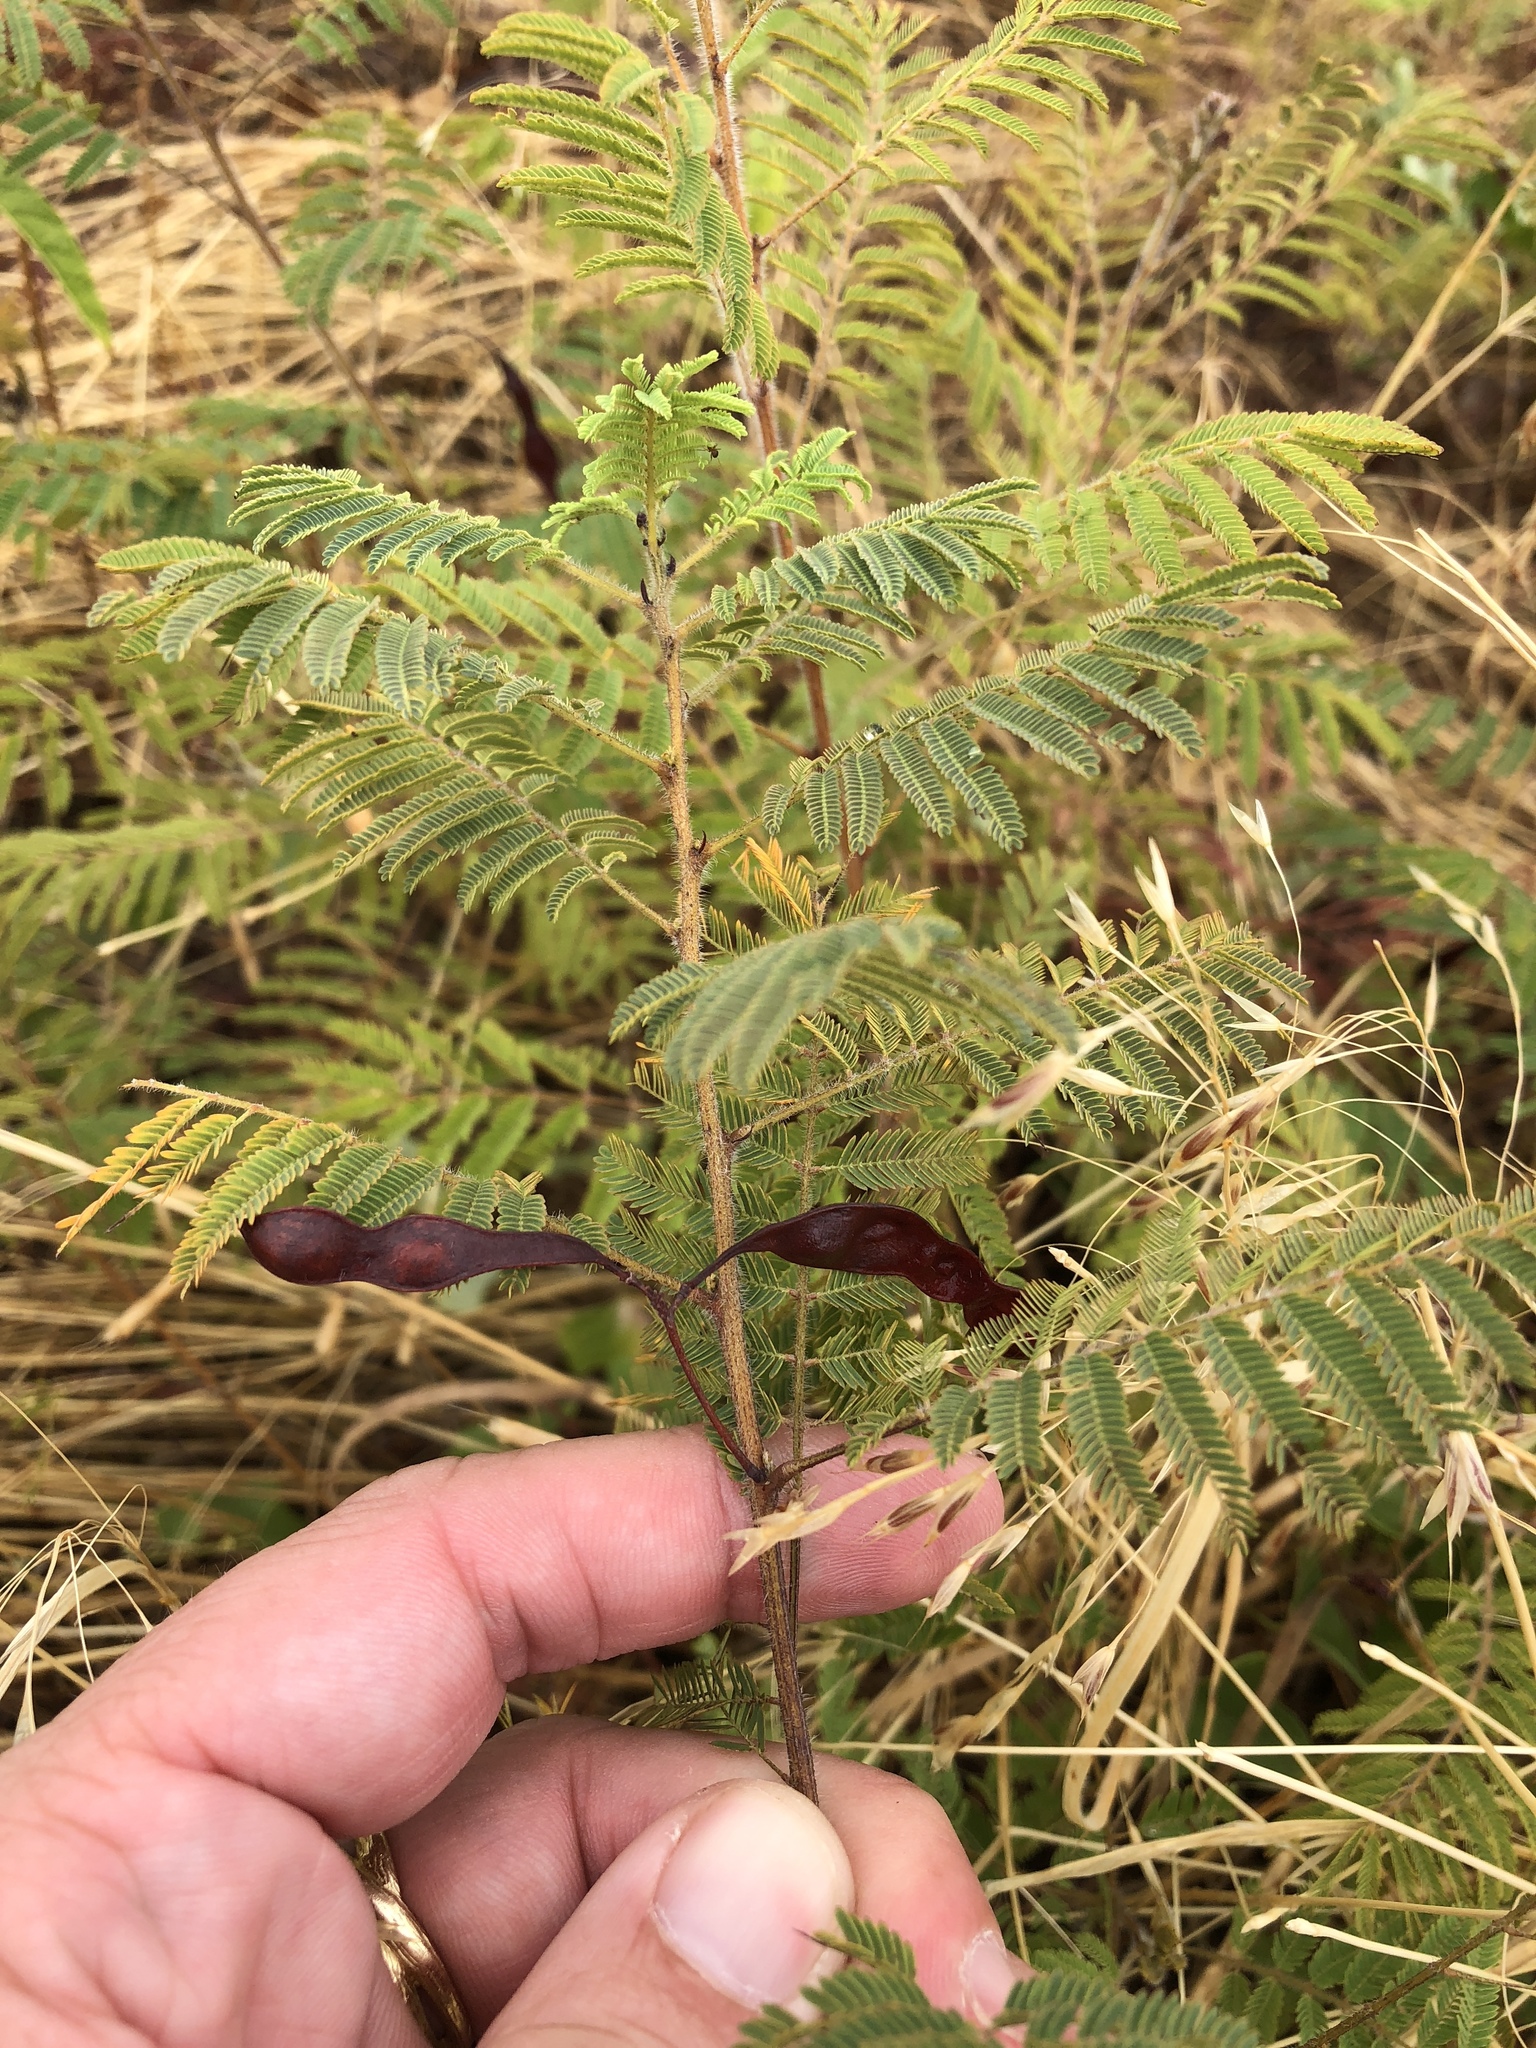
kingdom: Plantae
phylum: Tracheophyta
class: Magnoliopsida
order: Fabales
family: Fabaceae
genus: Acaciella
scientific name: Acaciella angustissima
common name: Prairie acacia
